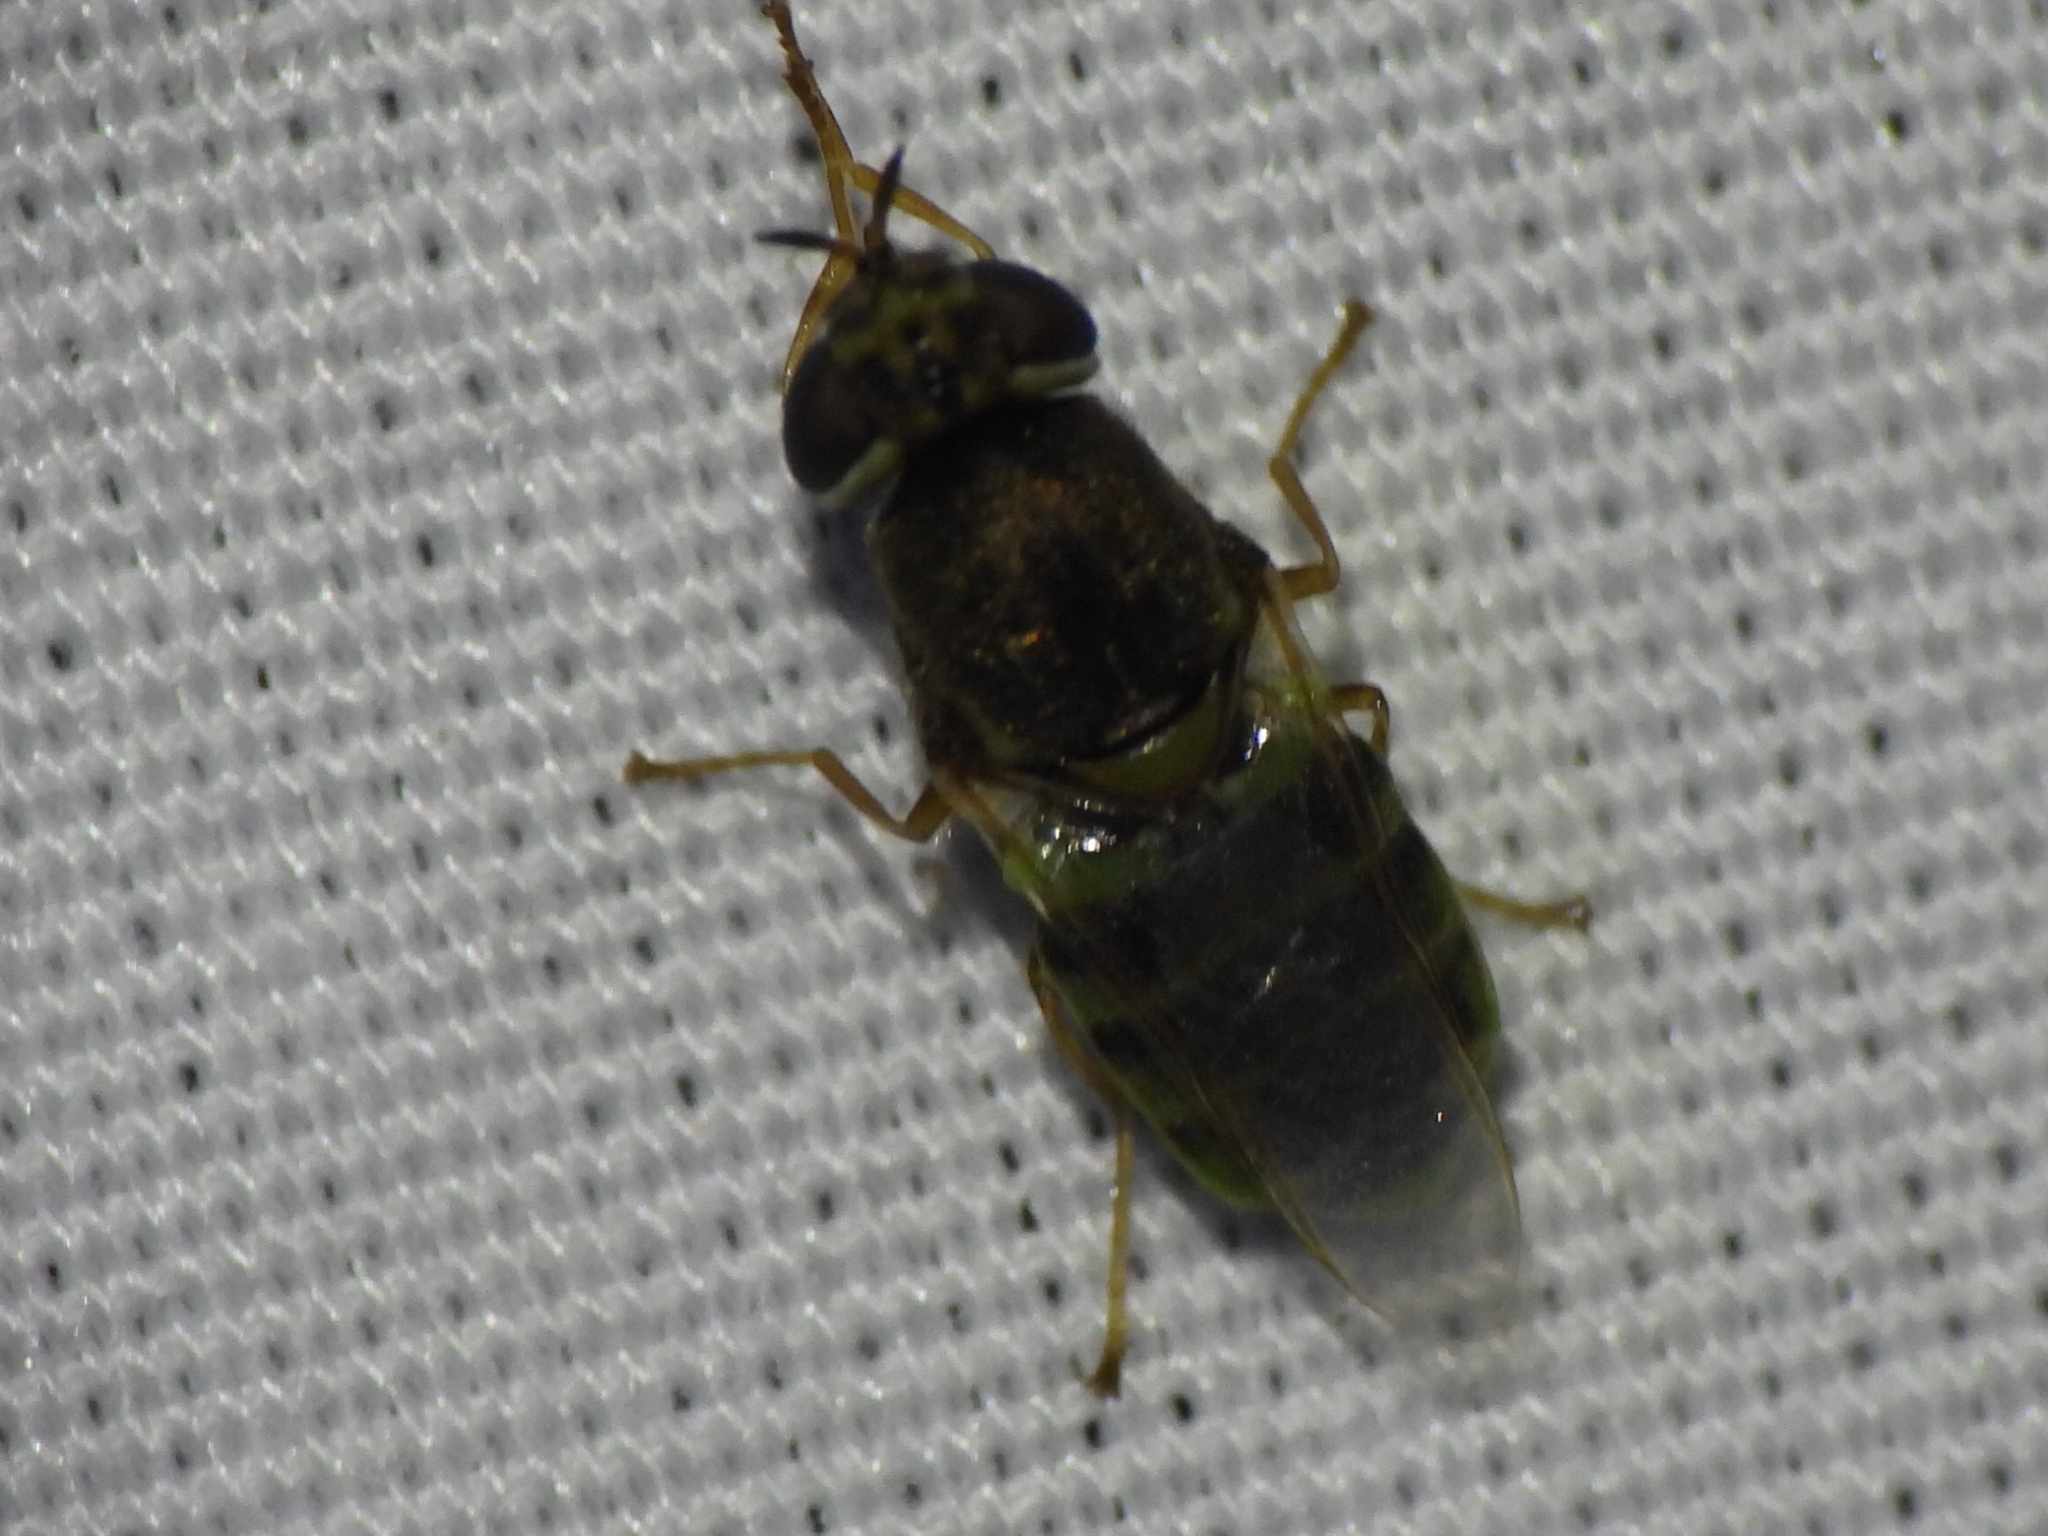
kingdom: Animalia
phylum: Arthropoda
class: Insecta
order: Diptera
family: Stratiomyidae
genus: Hedriodiscus
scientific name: Hedriodiscus vertebratus
